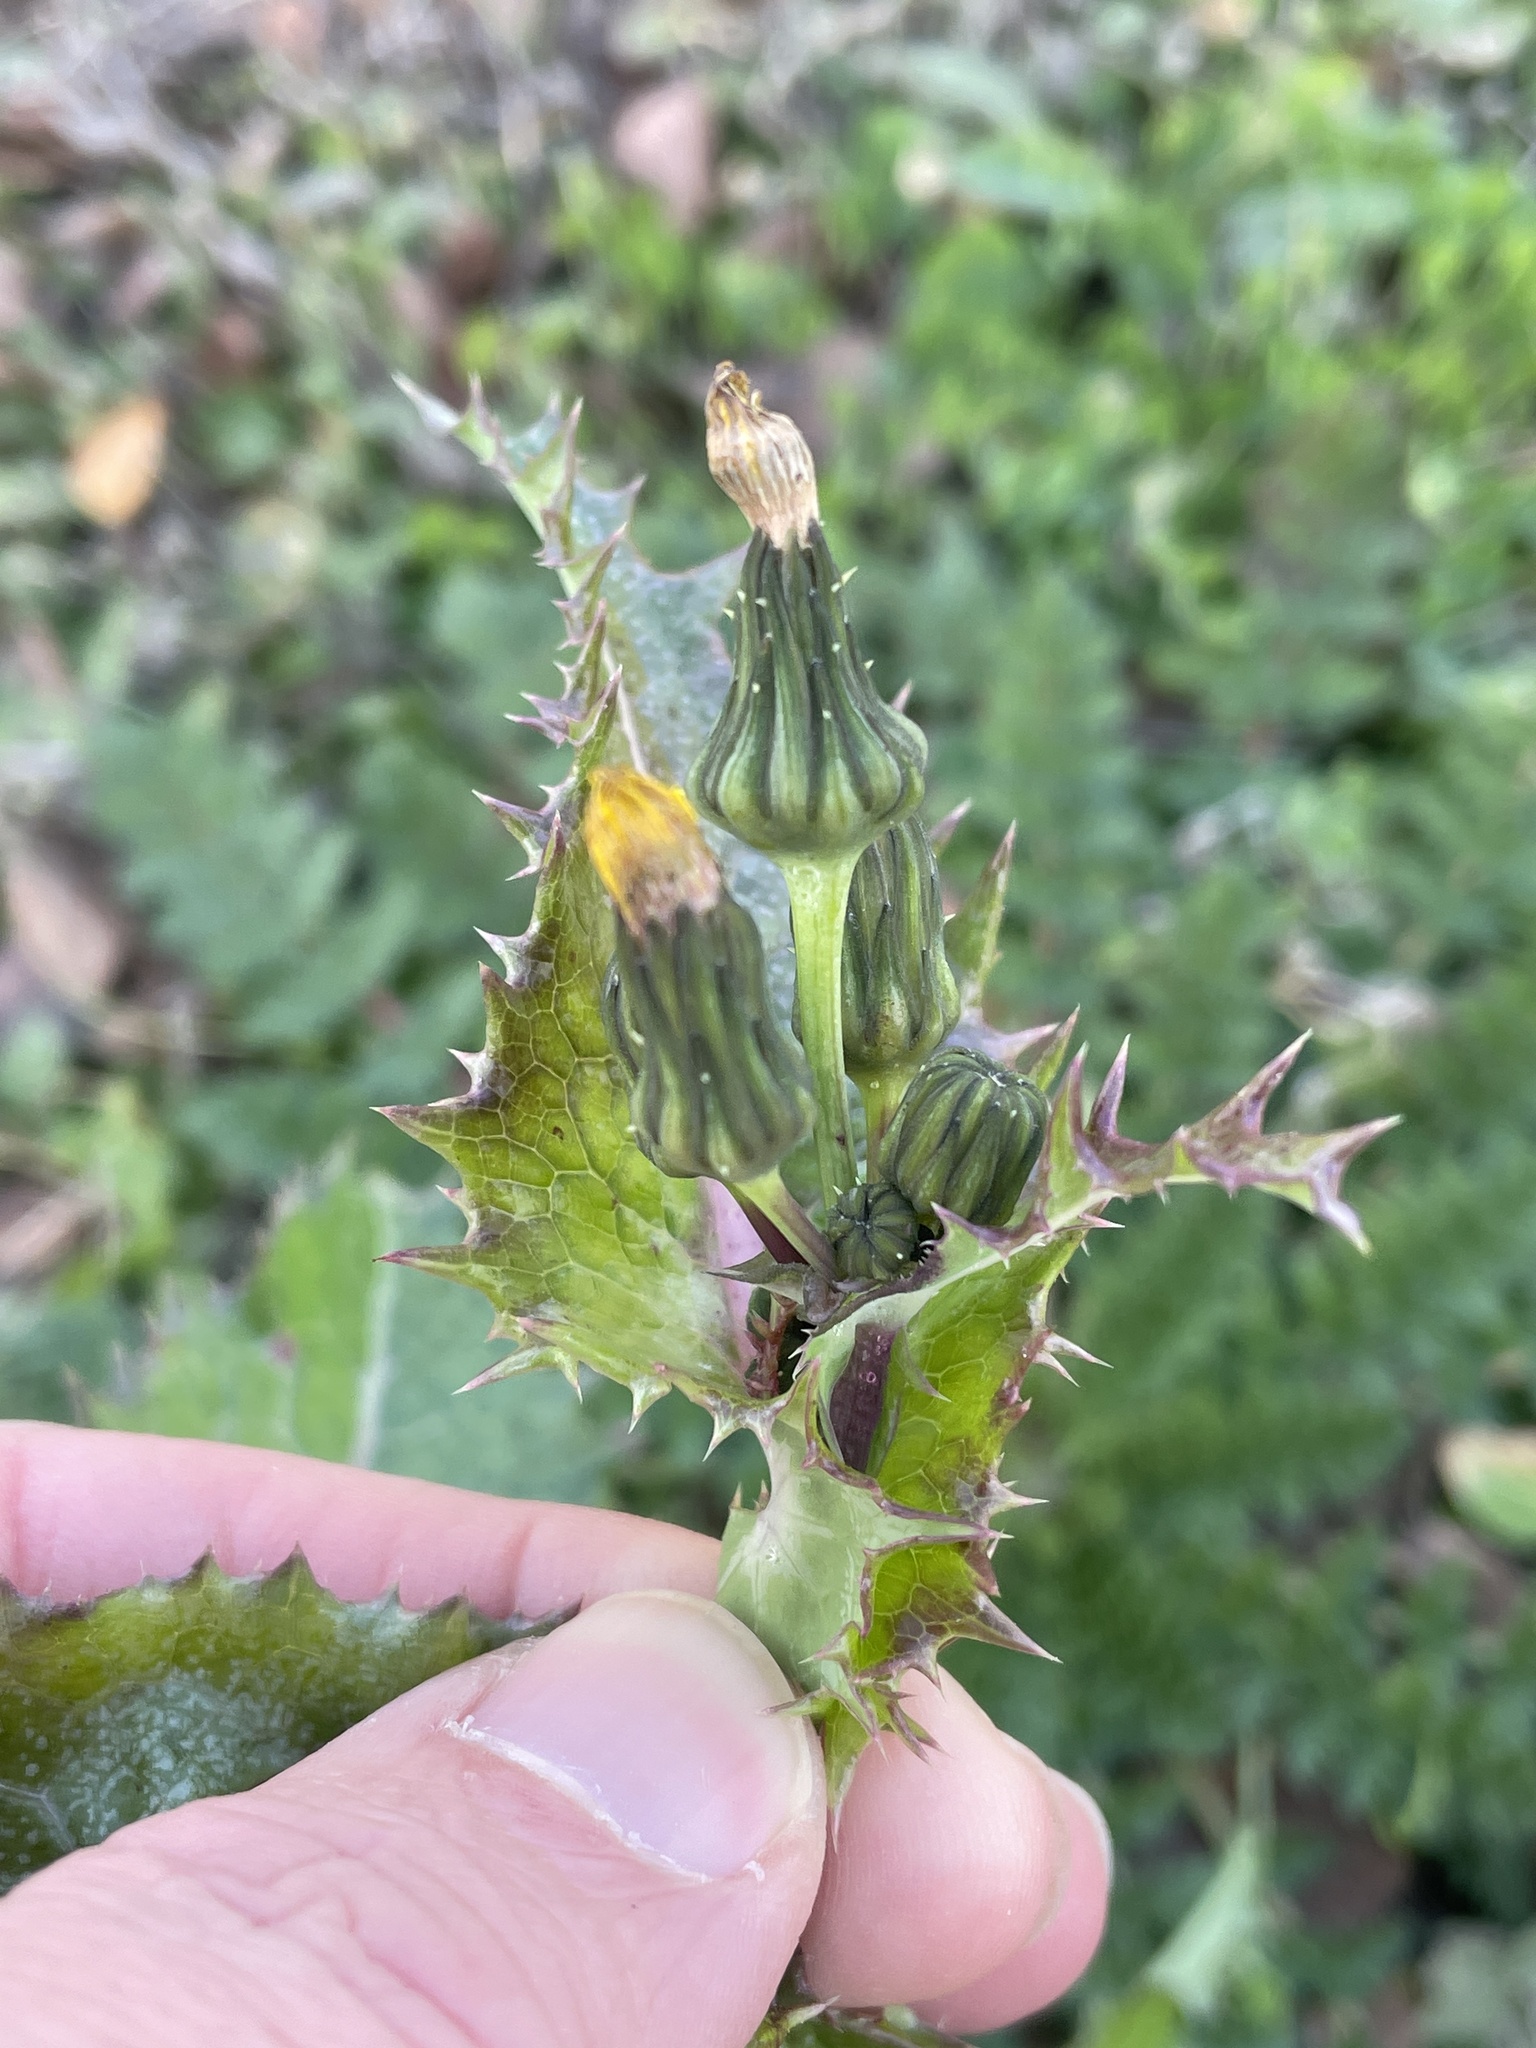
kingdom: Plantae
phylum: Tracheophyta
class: Magnoliopsida
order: Asterales
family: Asteraceae
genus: Sonchus
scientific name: Sonchus asper
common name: Prickly sow-thistle
